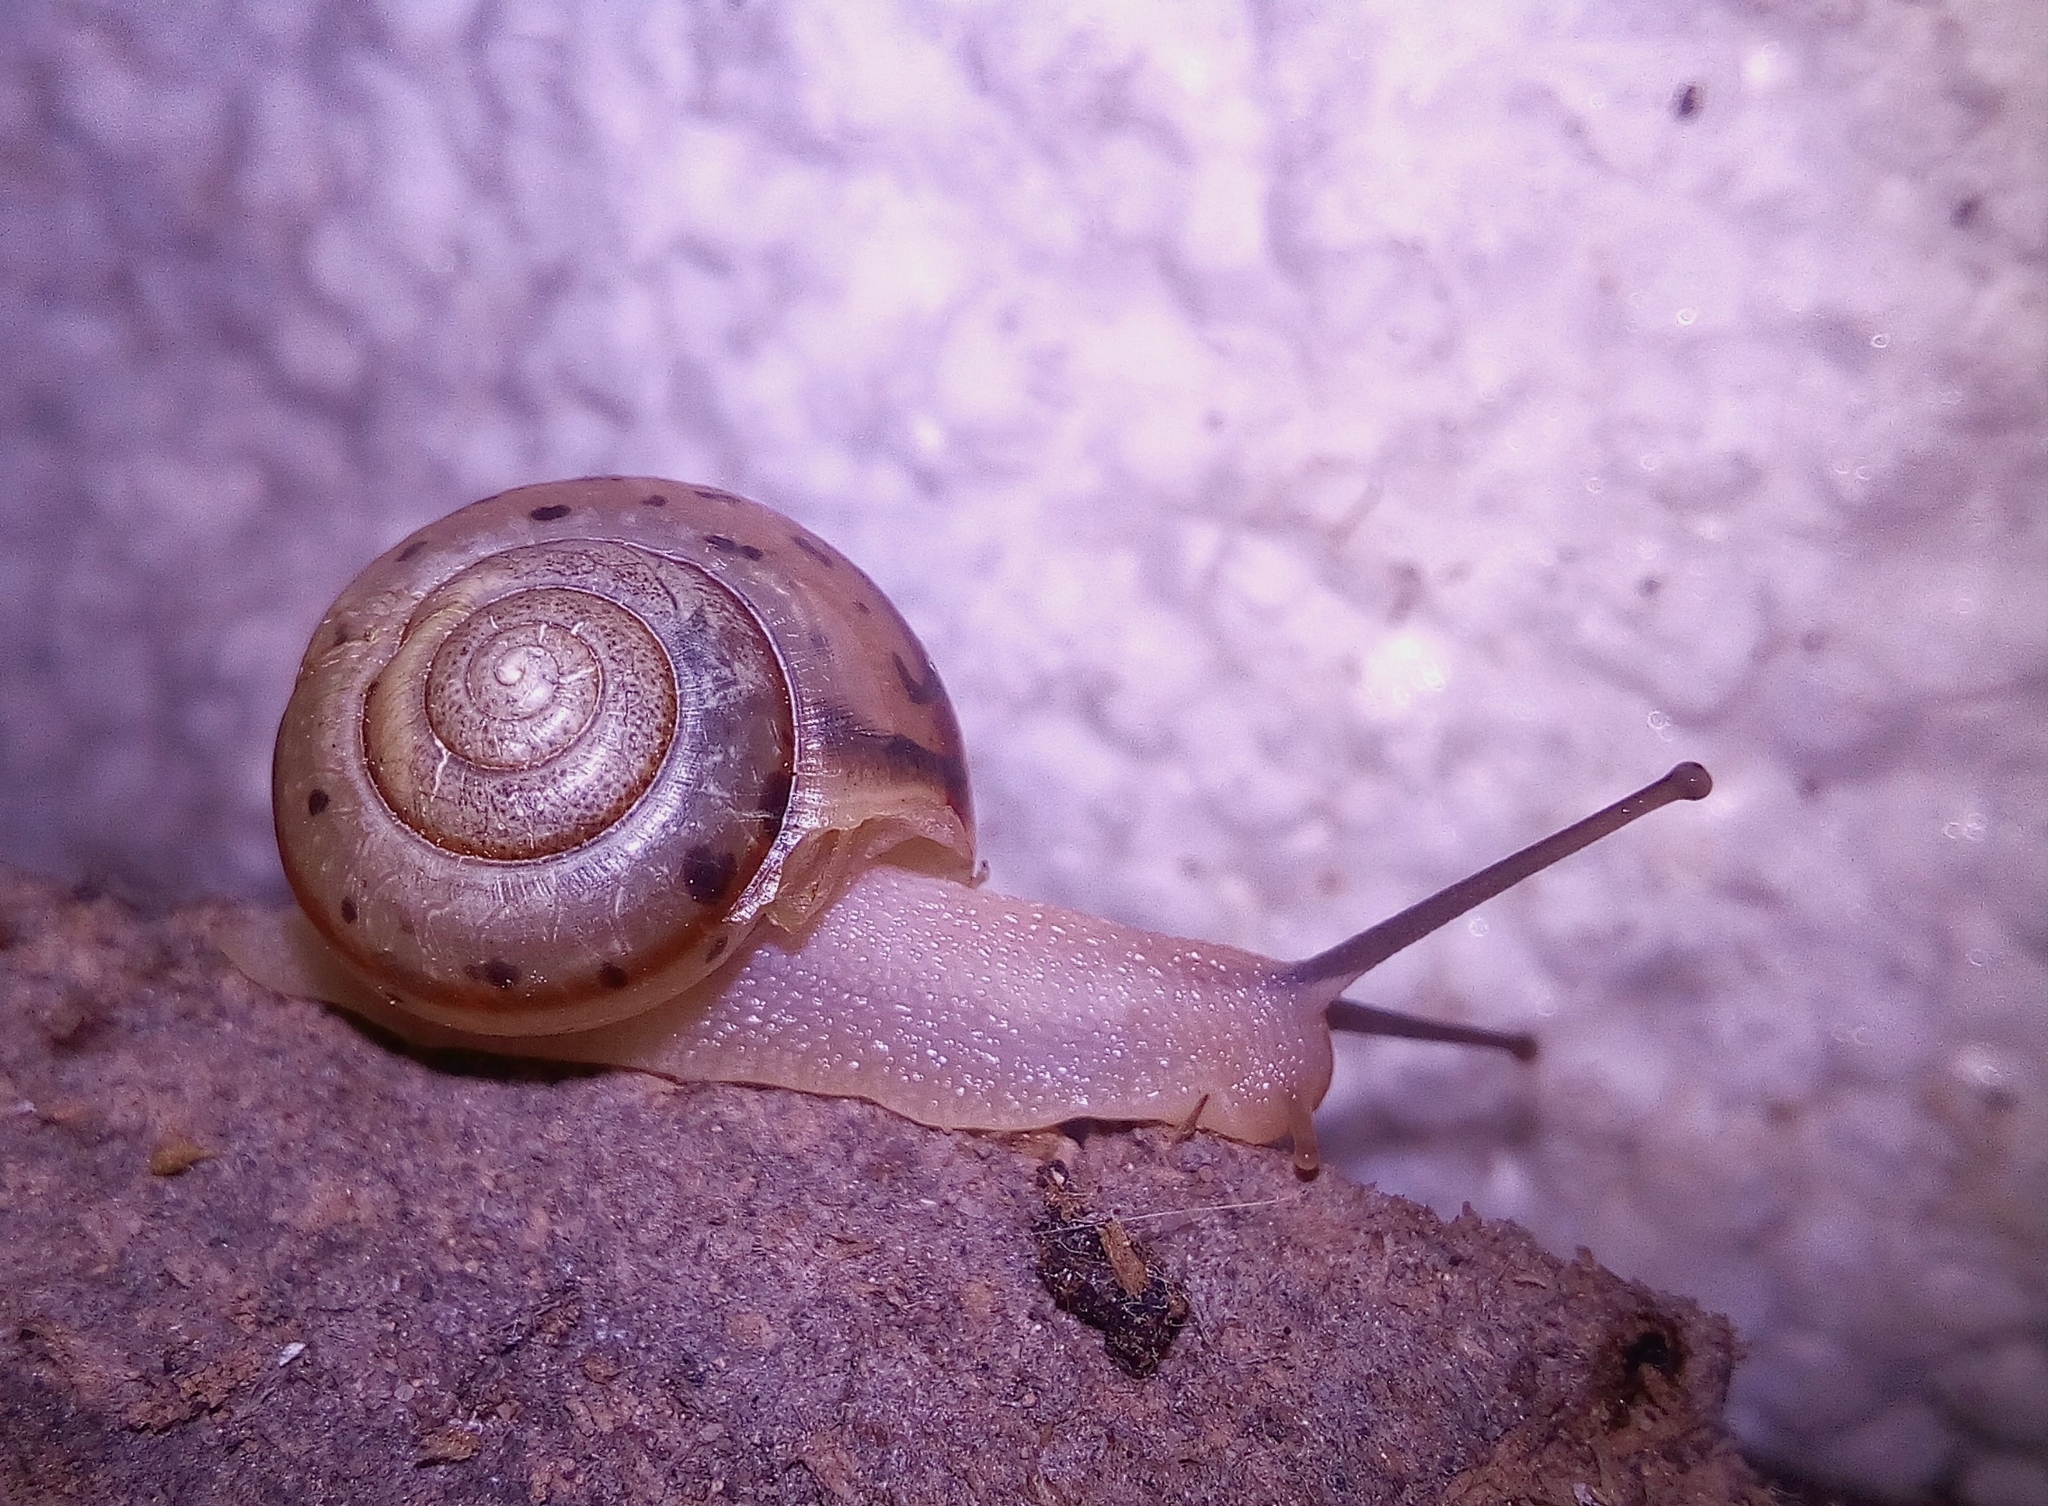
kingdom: Animalia
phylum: Mollusca
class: Gastropoda
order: Stylommatophora
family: Camaenidae
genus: Fruticicola
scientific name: Fruticicola fruticum
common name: Bush snail
